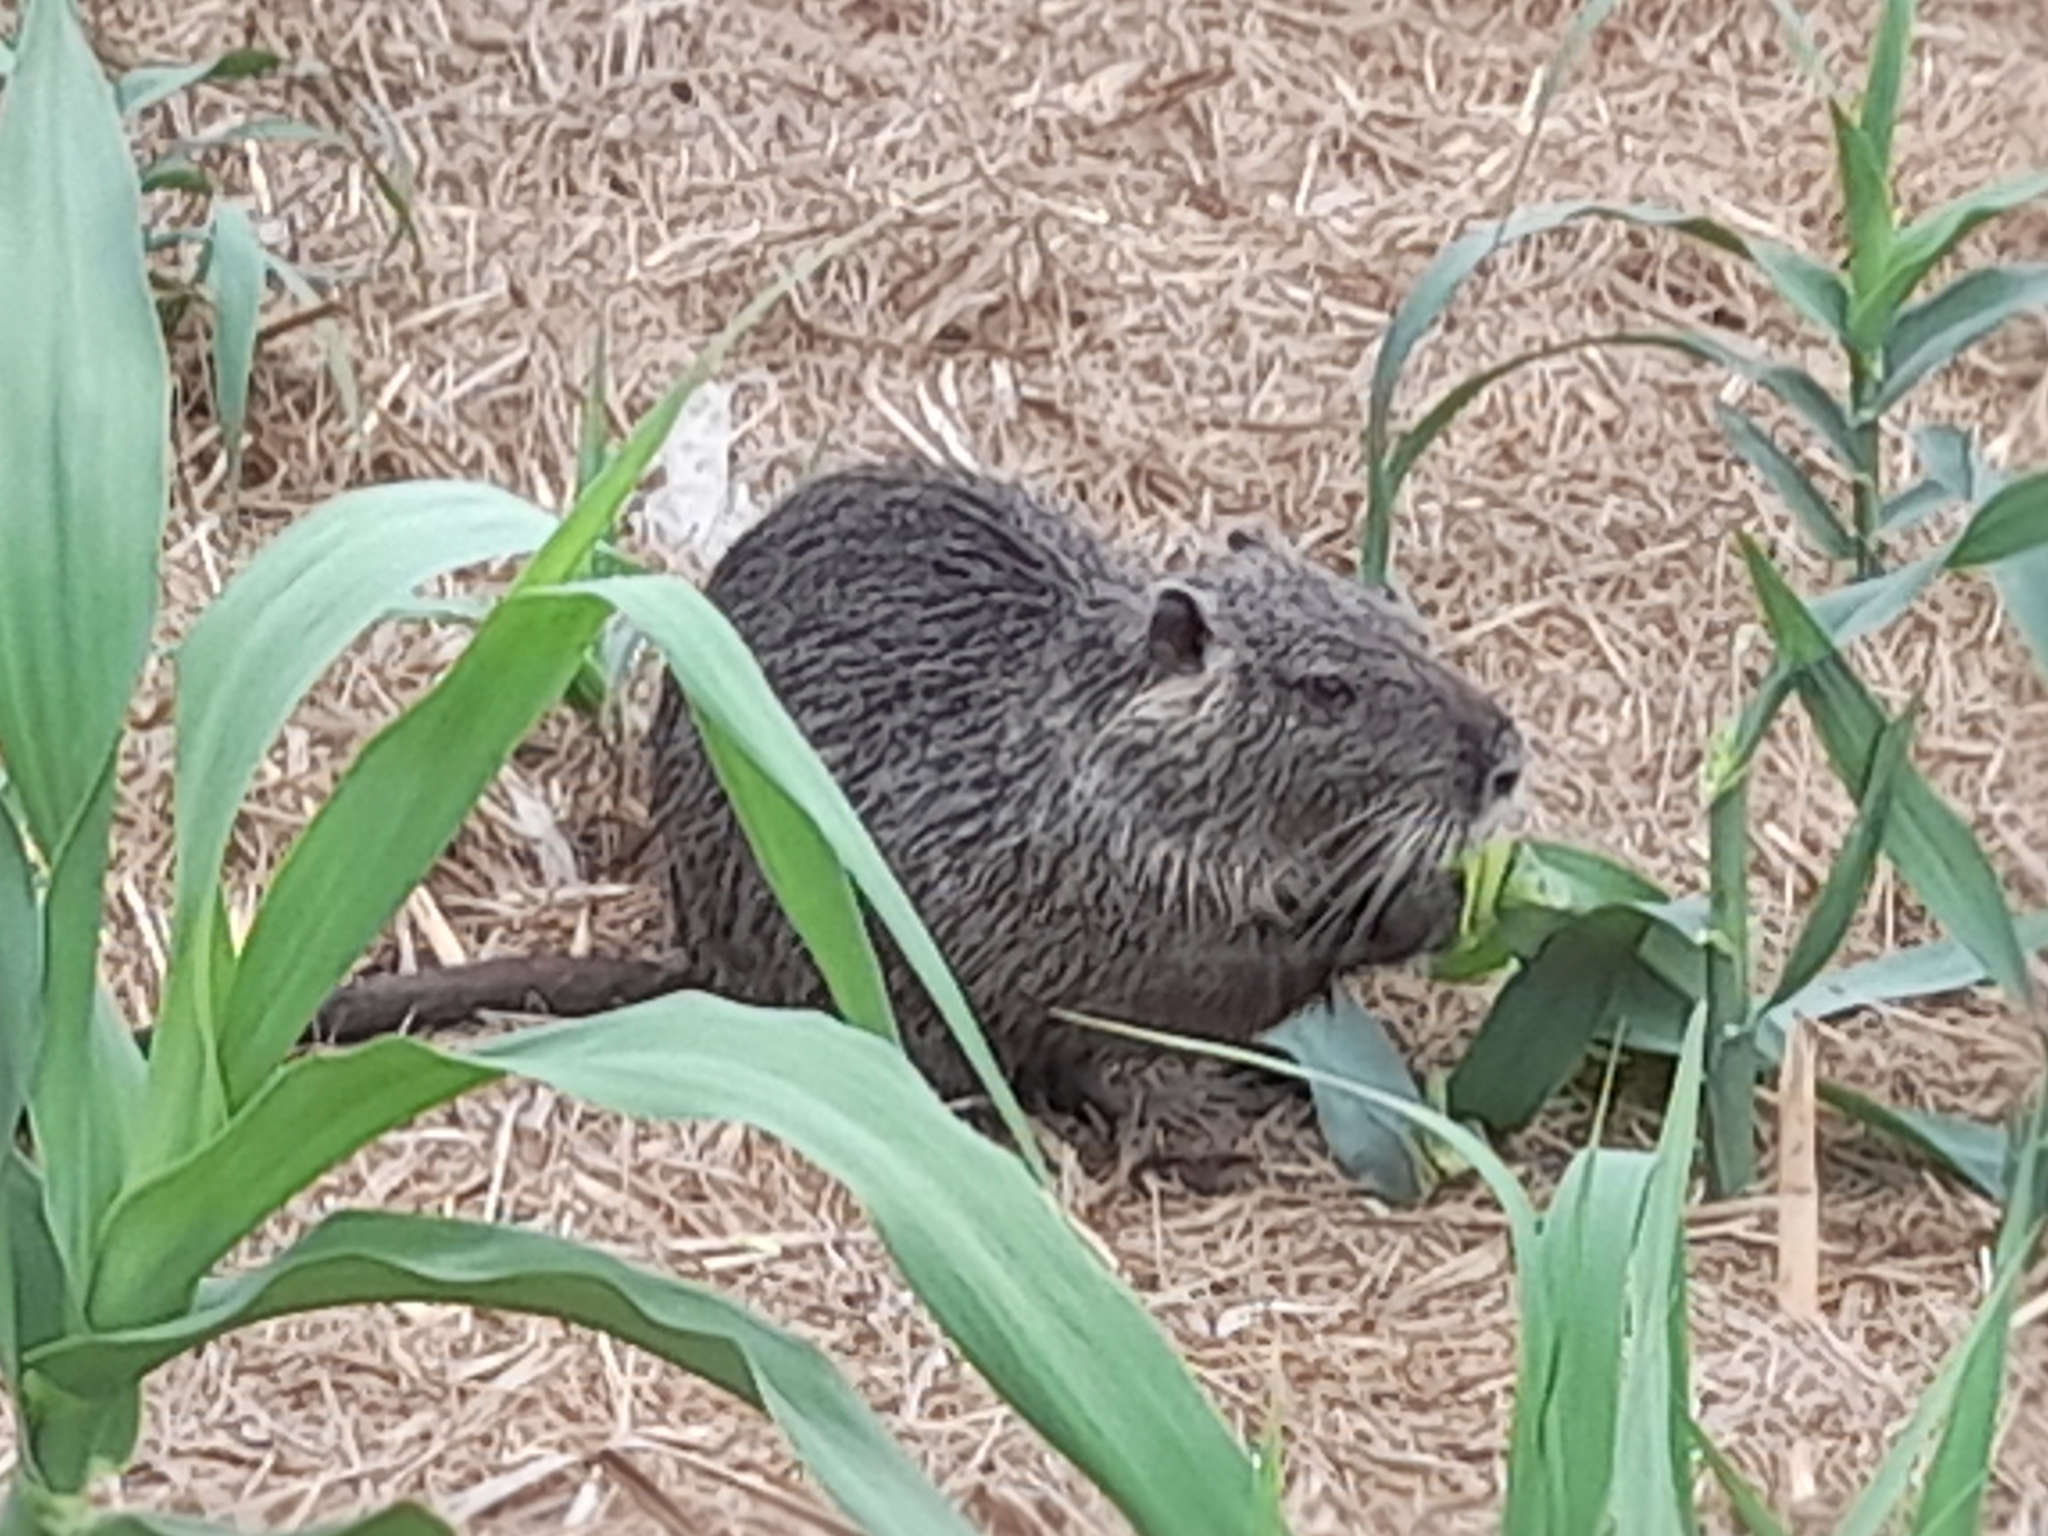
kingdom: Animalia
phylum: Chordata
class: Mammalia
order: Rodentia
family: Myocastoridae
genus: Myocastor
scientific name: Myocastor coypus
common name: Coypu
